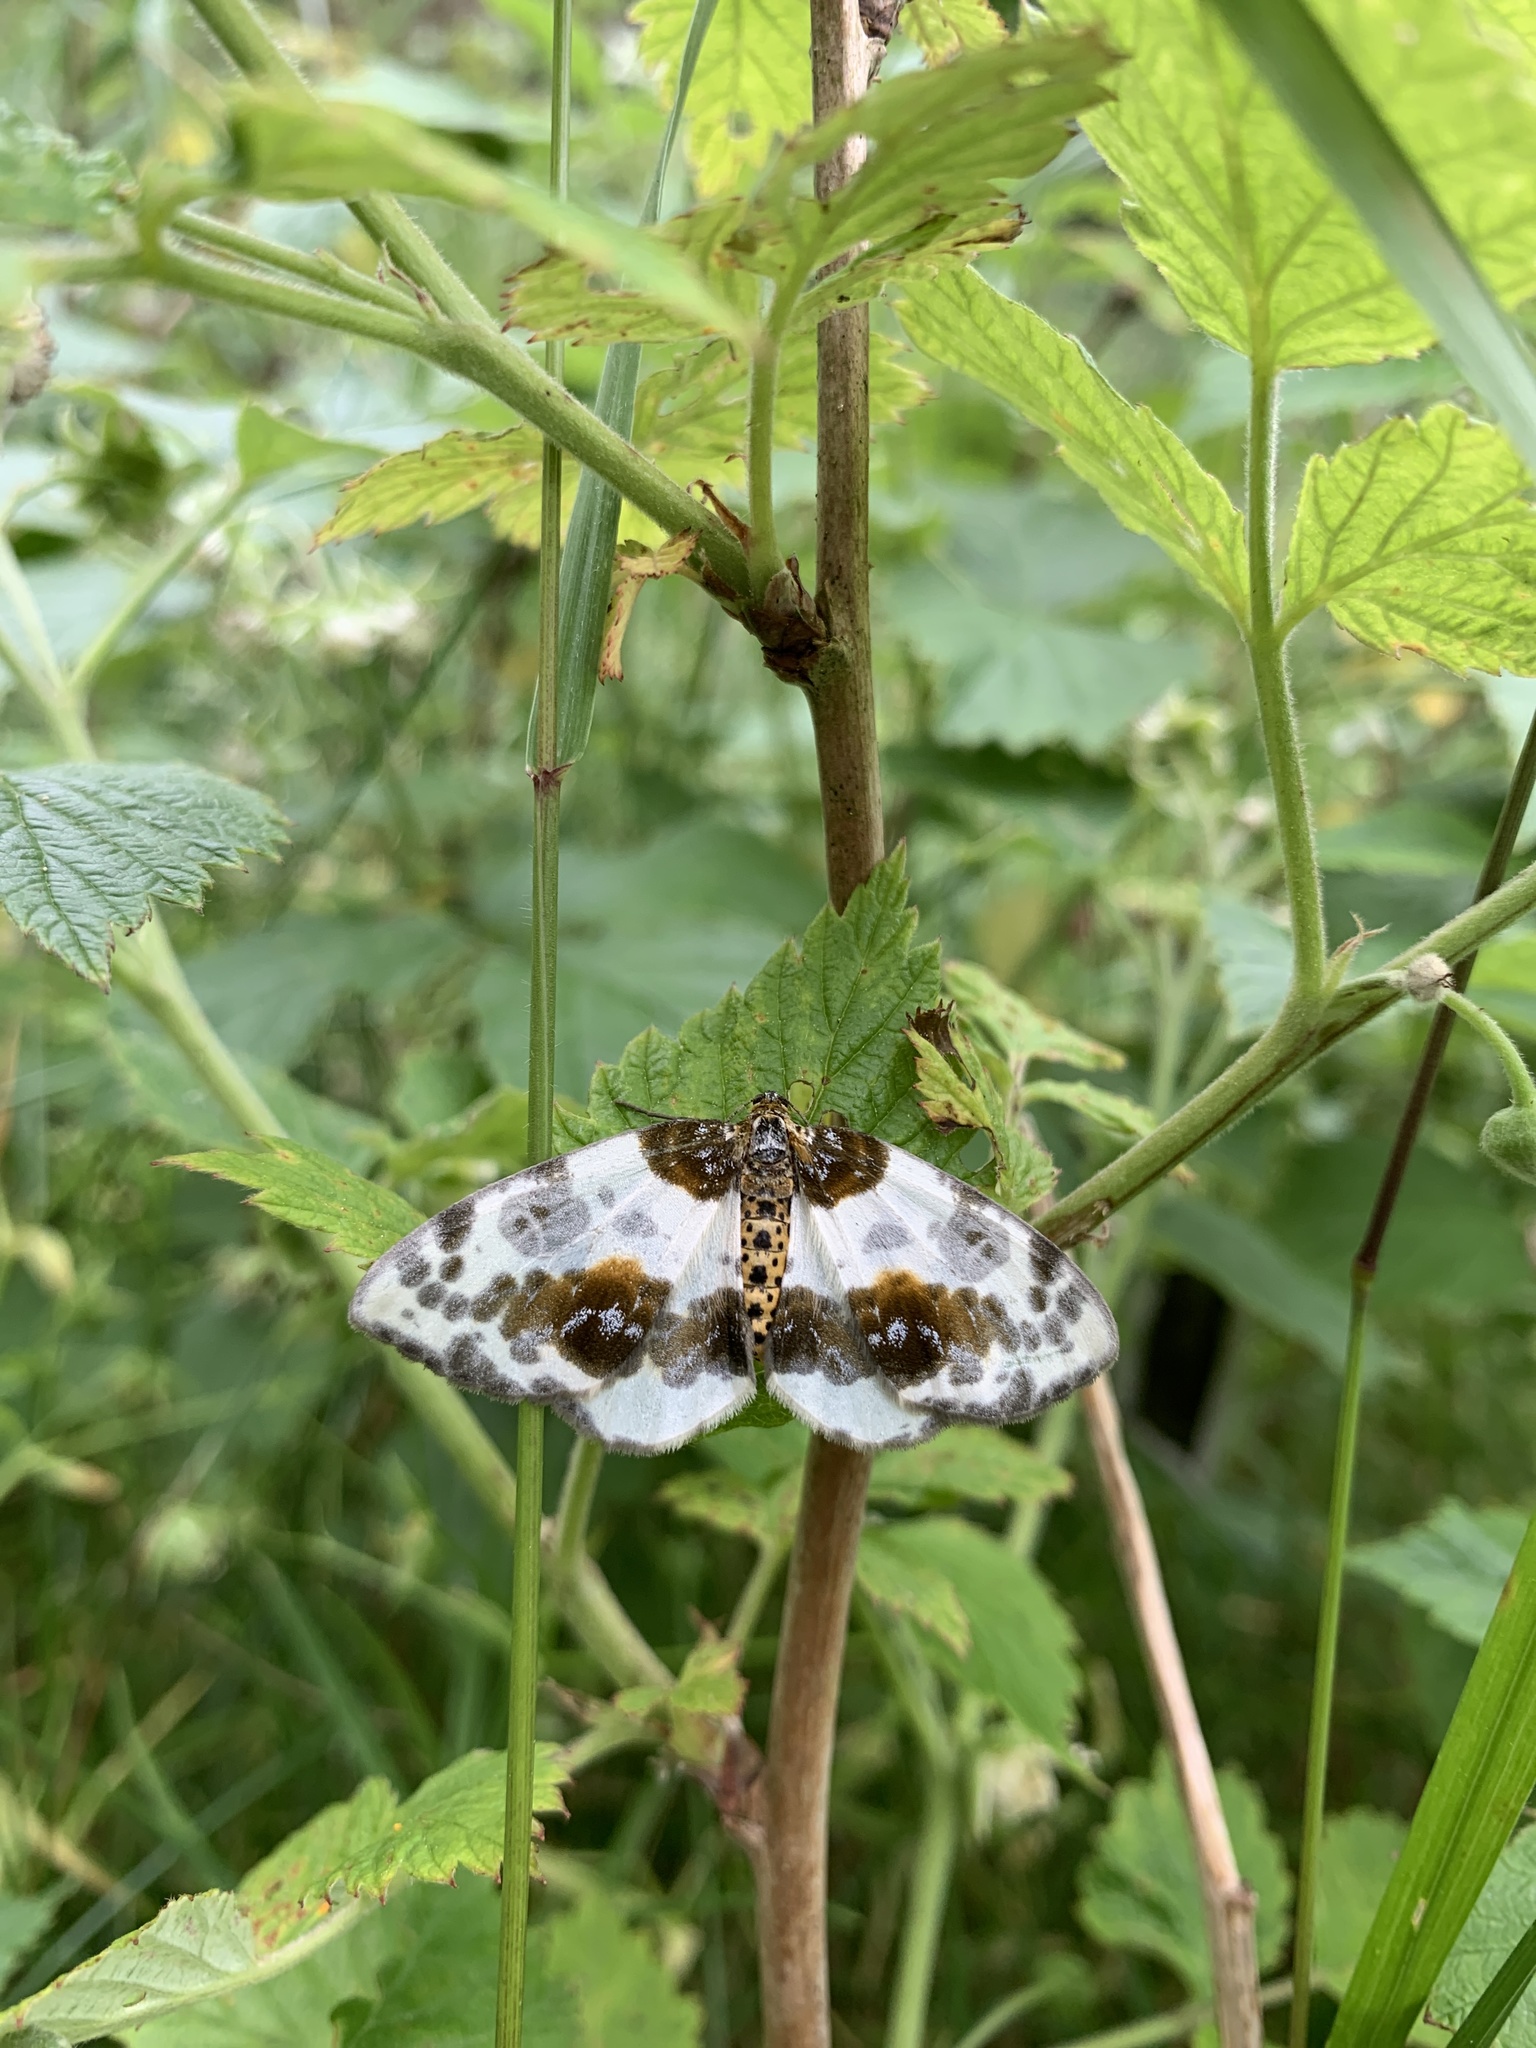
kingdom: Animalia
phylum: Arthropoda
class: Insecta
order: Lepidoptera
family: Geometridae
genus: Abraxas
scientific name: Abraxas sylvata
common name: Clouded magpie
